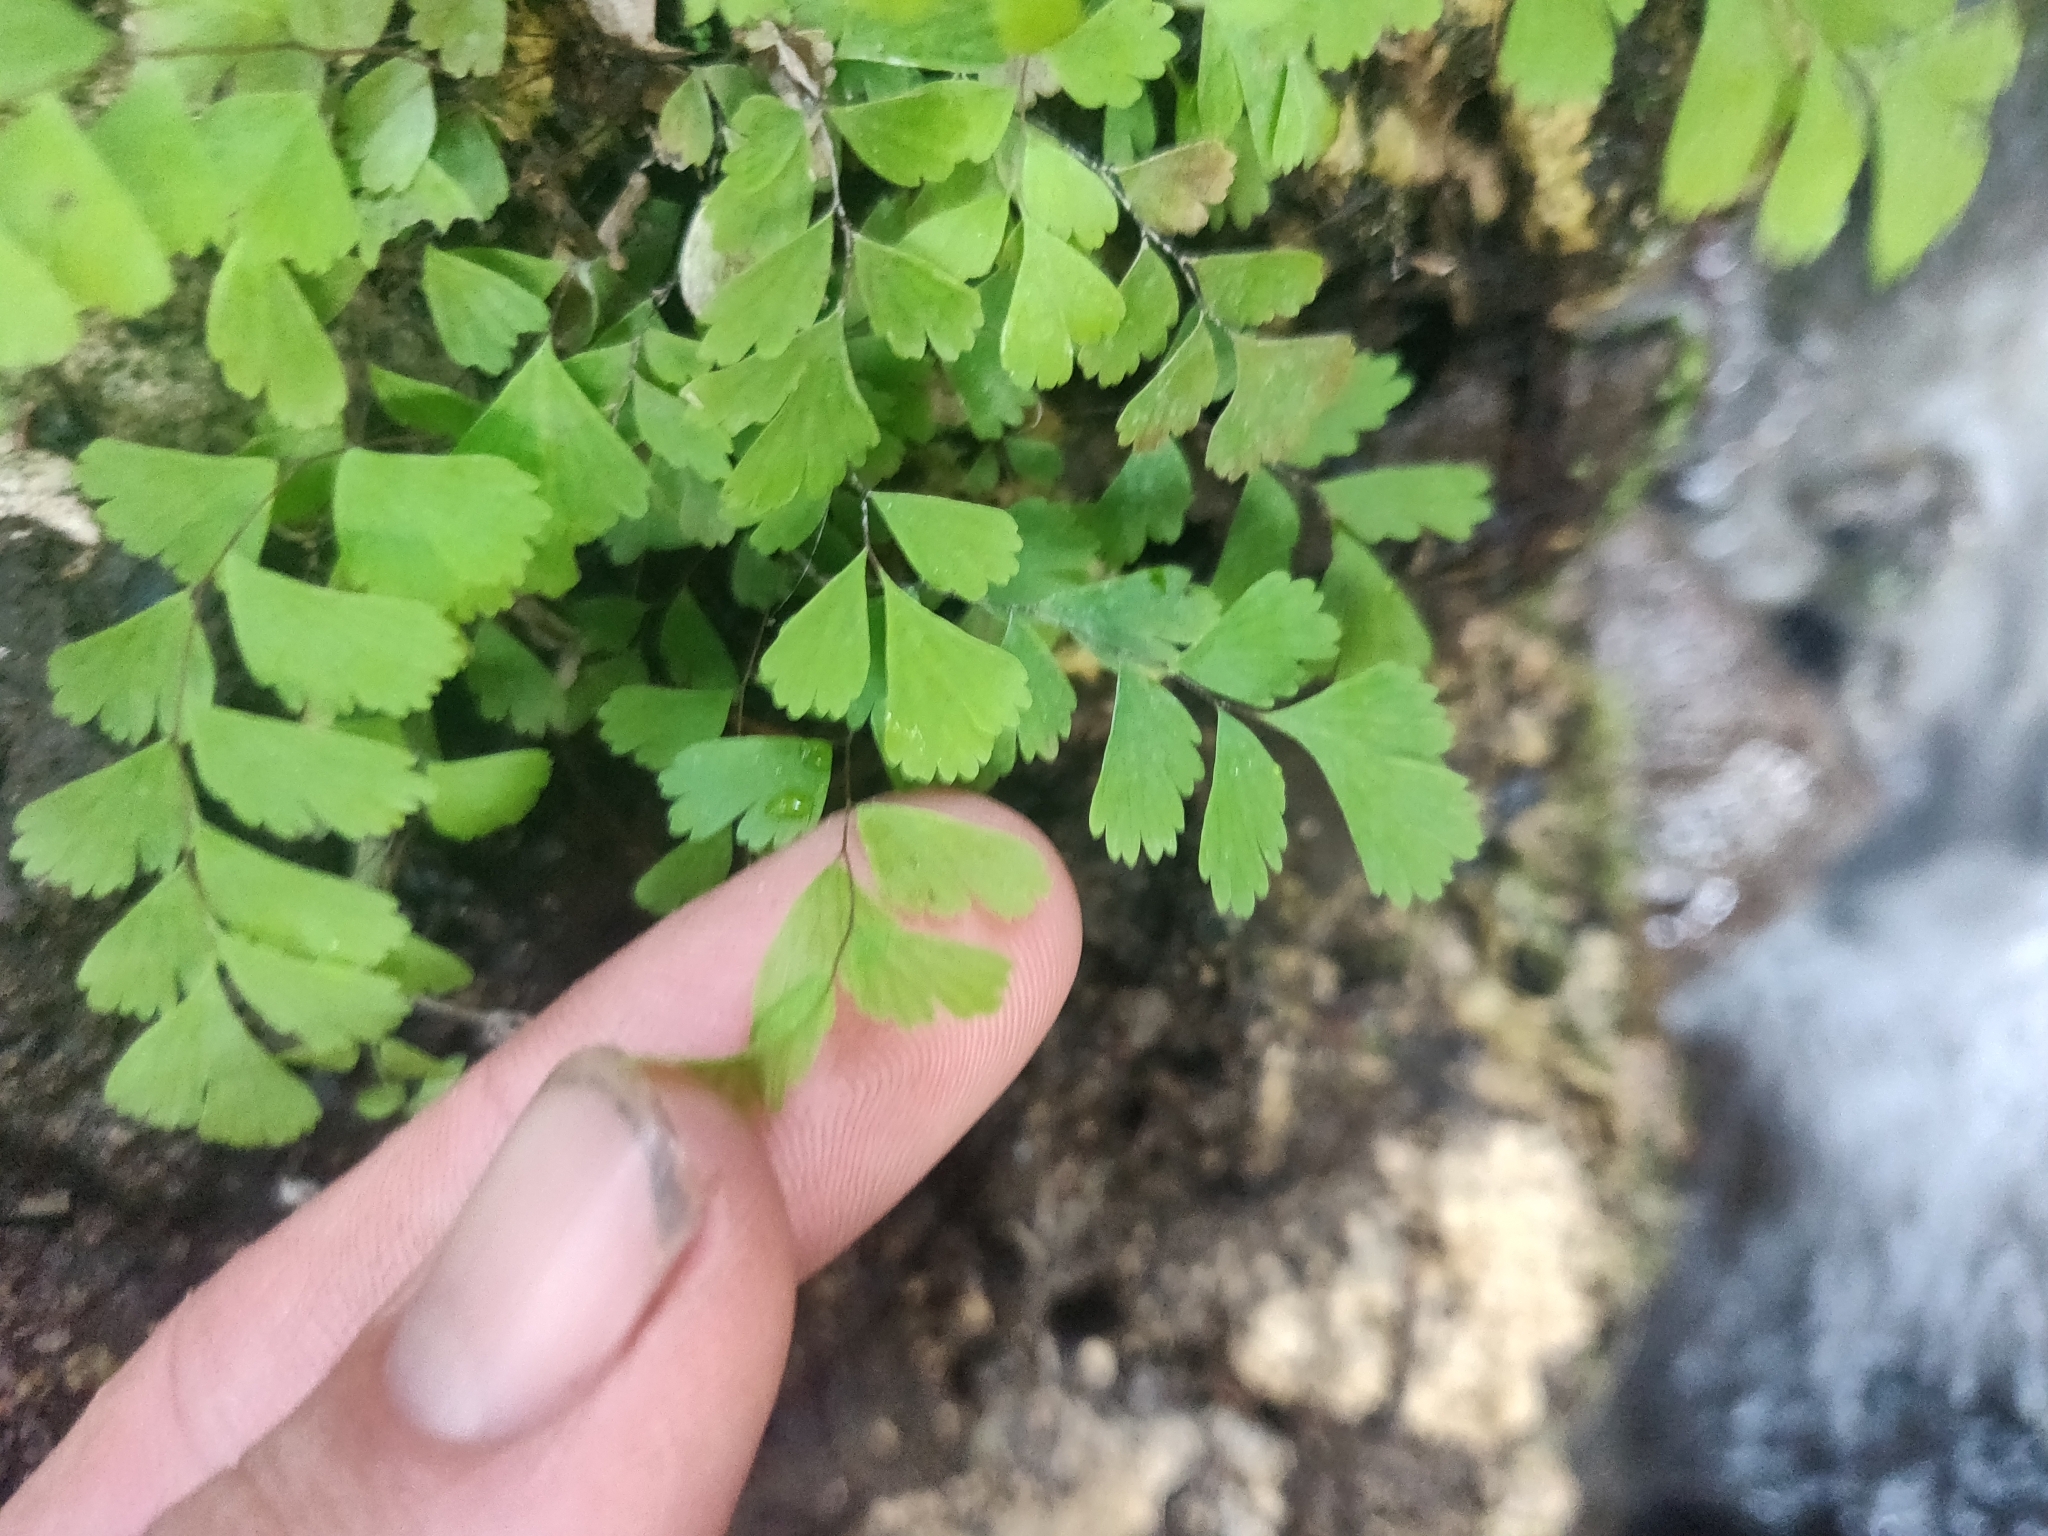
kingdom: Plantae
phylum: Tracheophyta
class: Polypodiopsida
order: Polypodiales
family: Pteridaceae
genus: Adiantum
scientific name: Adiantum capillus-veneris
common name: Maidenhair fern
